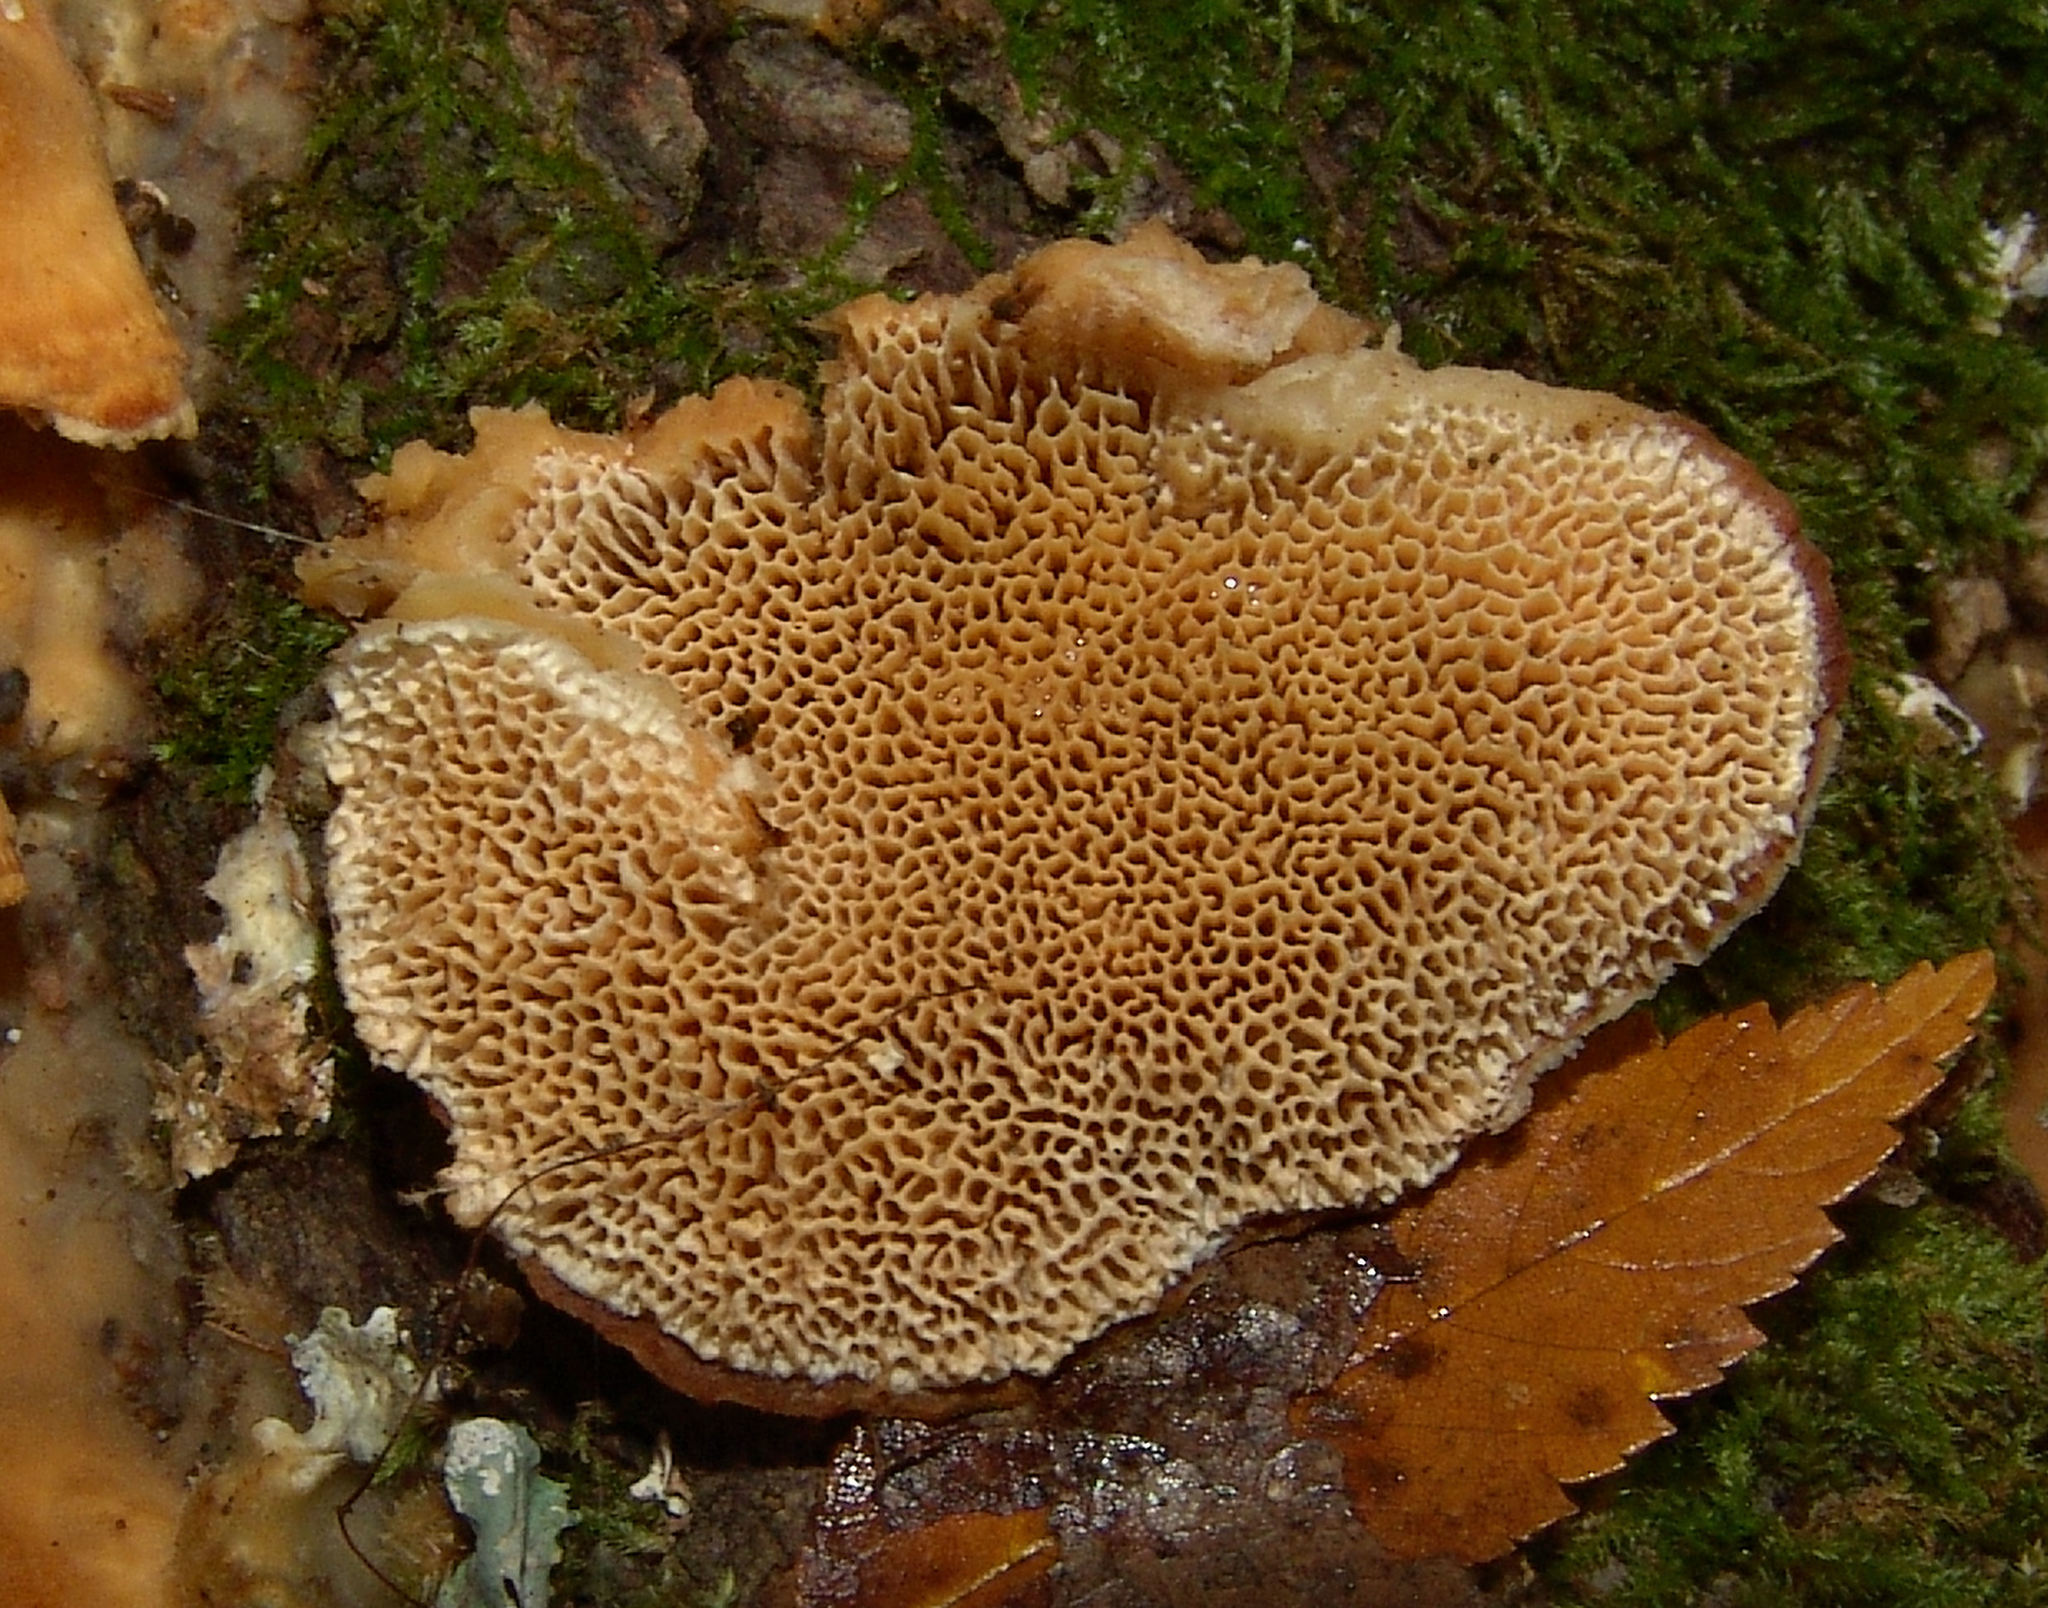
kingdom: Fungi
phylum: Basidiomycota
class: Agaricomycetes
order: Polyporales
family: Irpicaceae
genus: Trametopsis
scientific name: Trametopsis cervina
